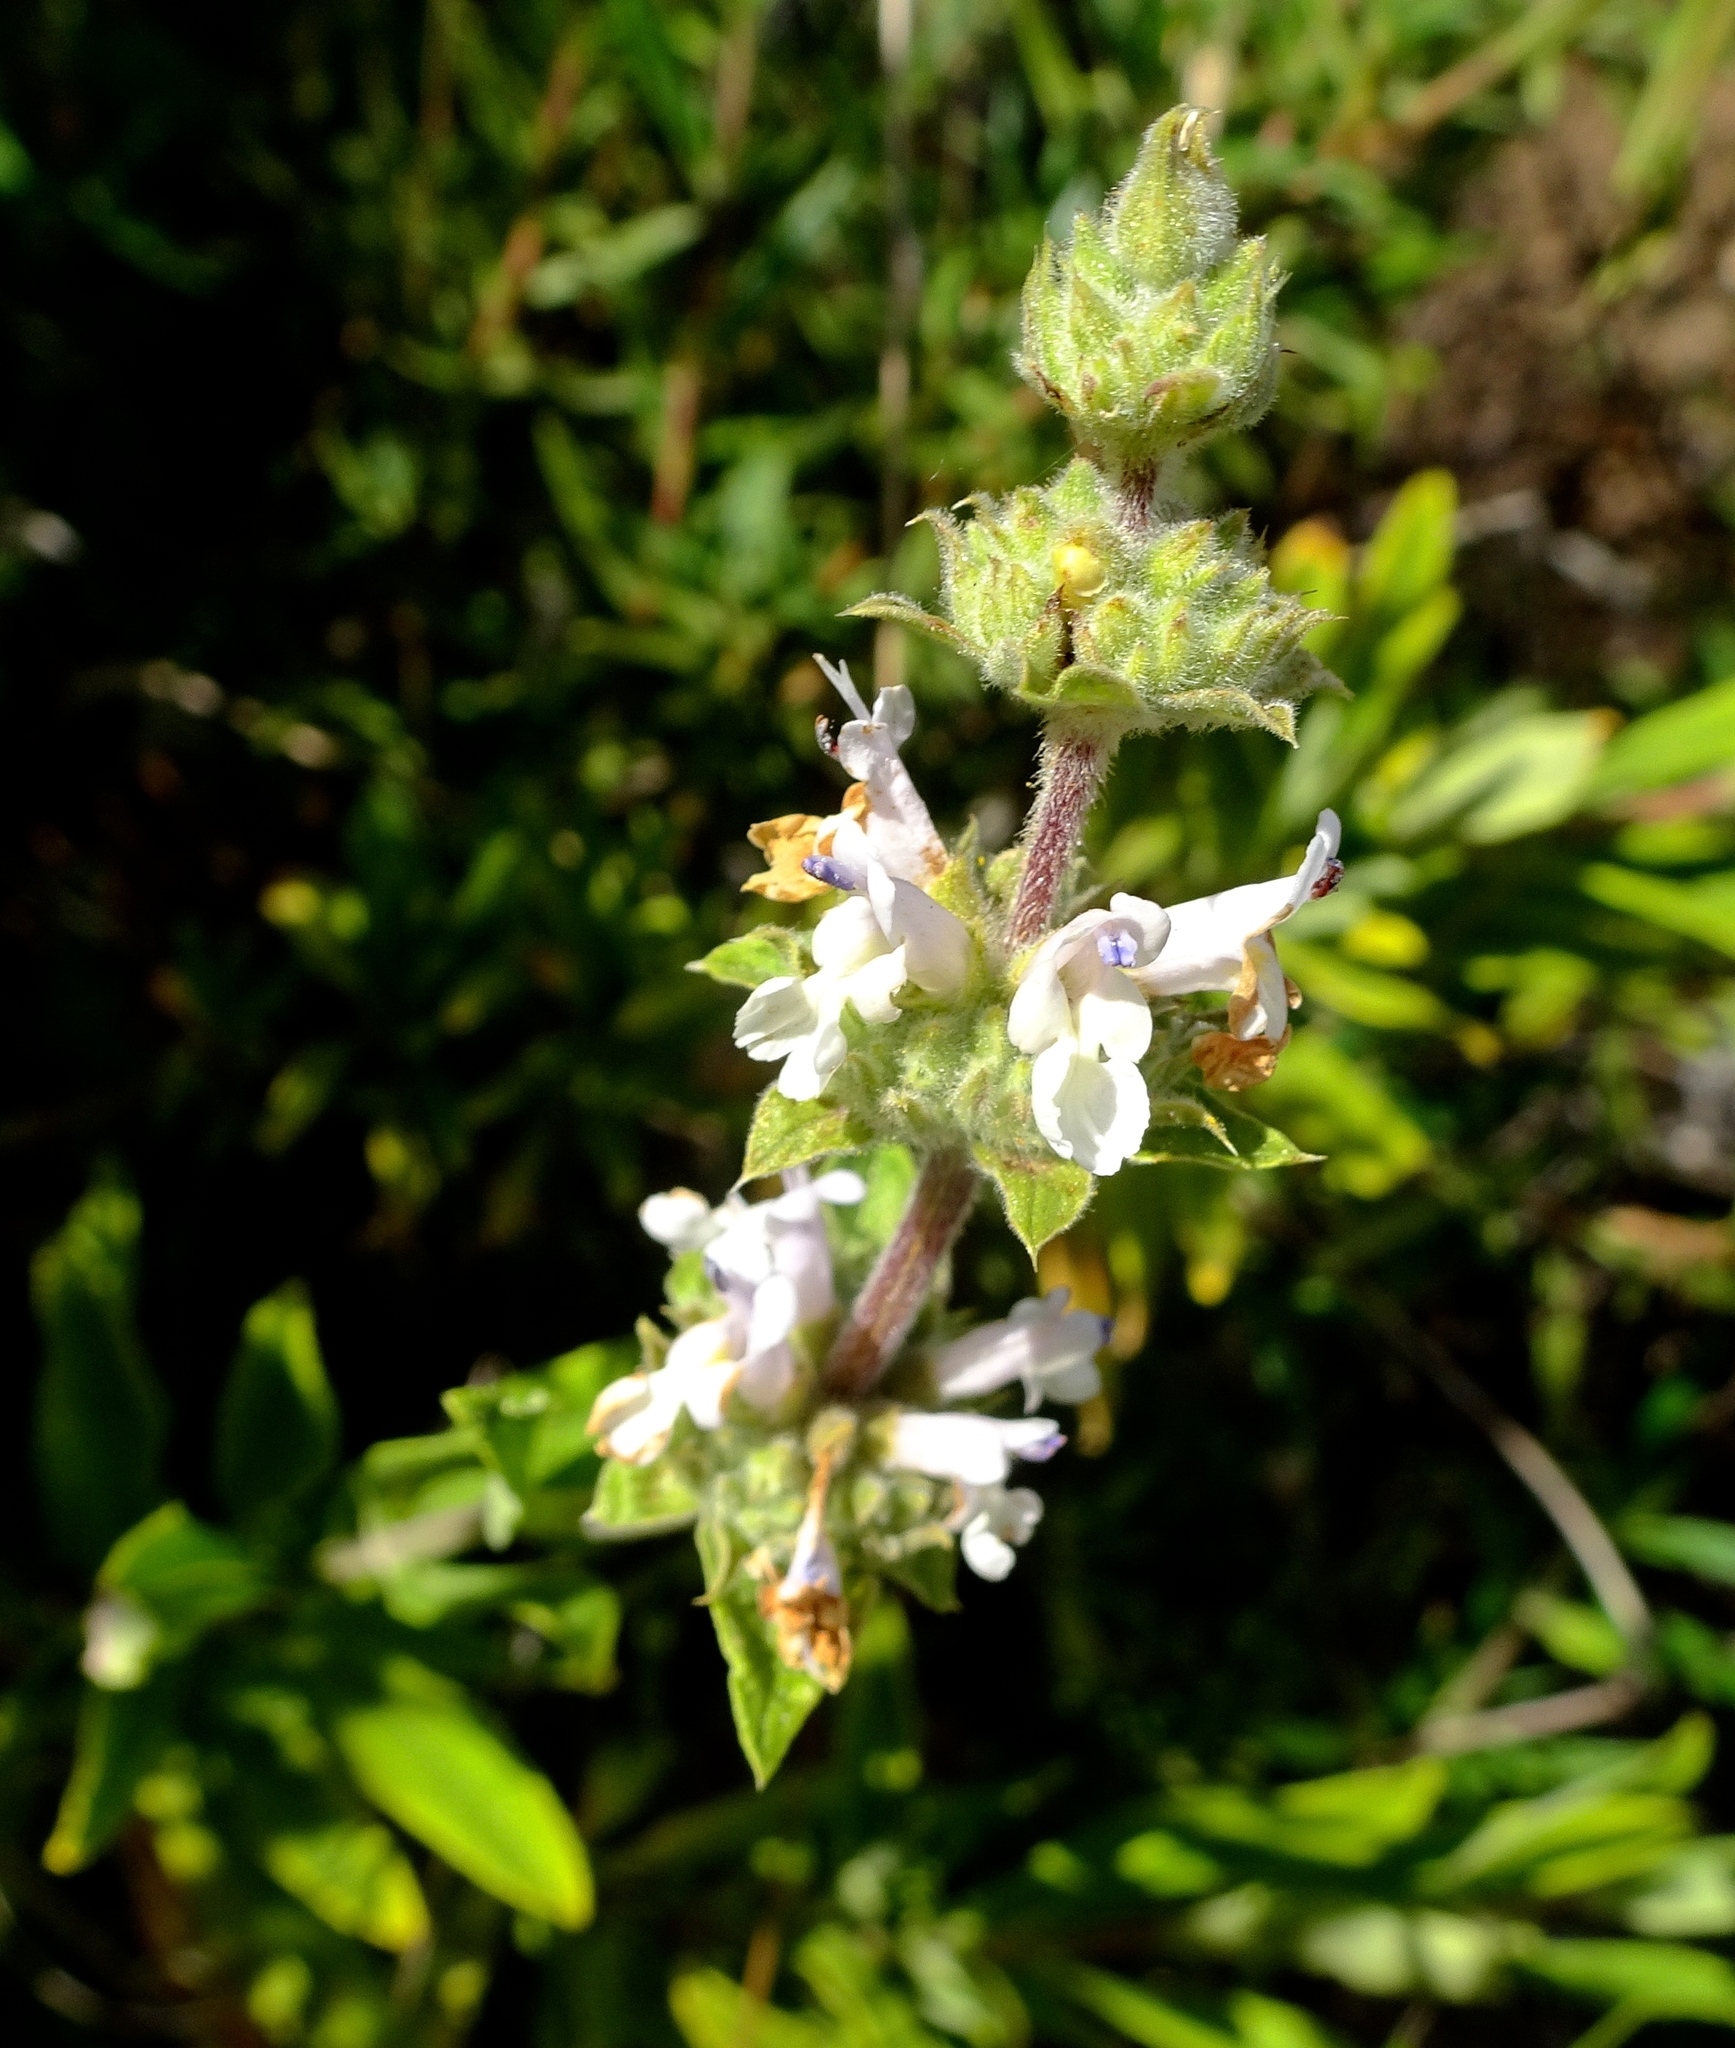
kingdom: Plantae
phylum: Tracheophyta
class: Magnoliopsida
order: Lamiales
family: Lamiaceae
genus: Salvia
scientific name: Salvia mellifera
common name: Black sage
